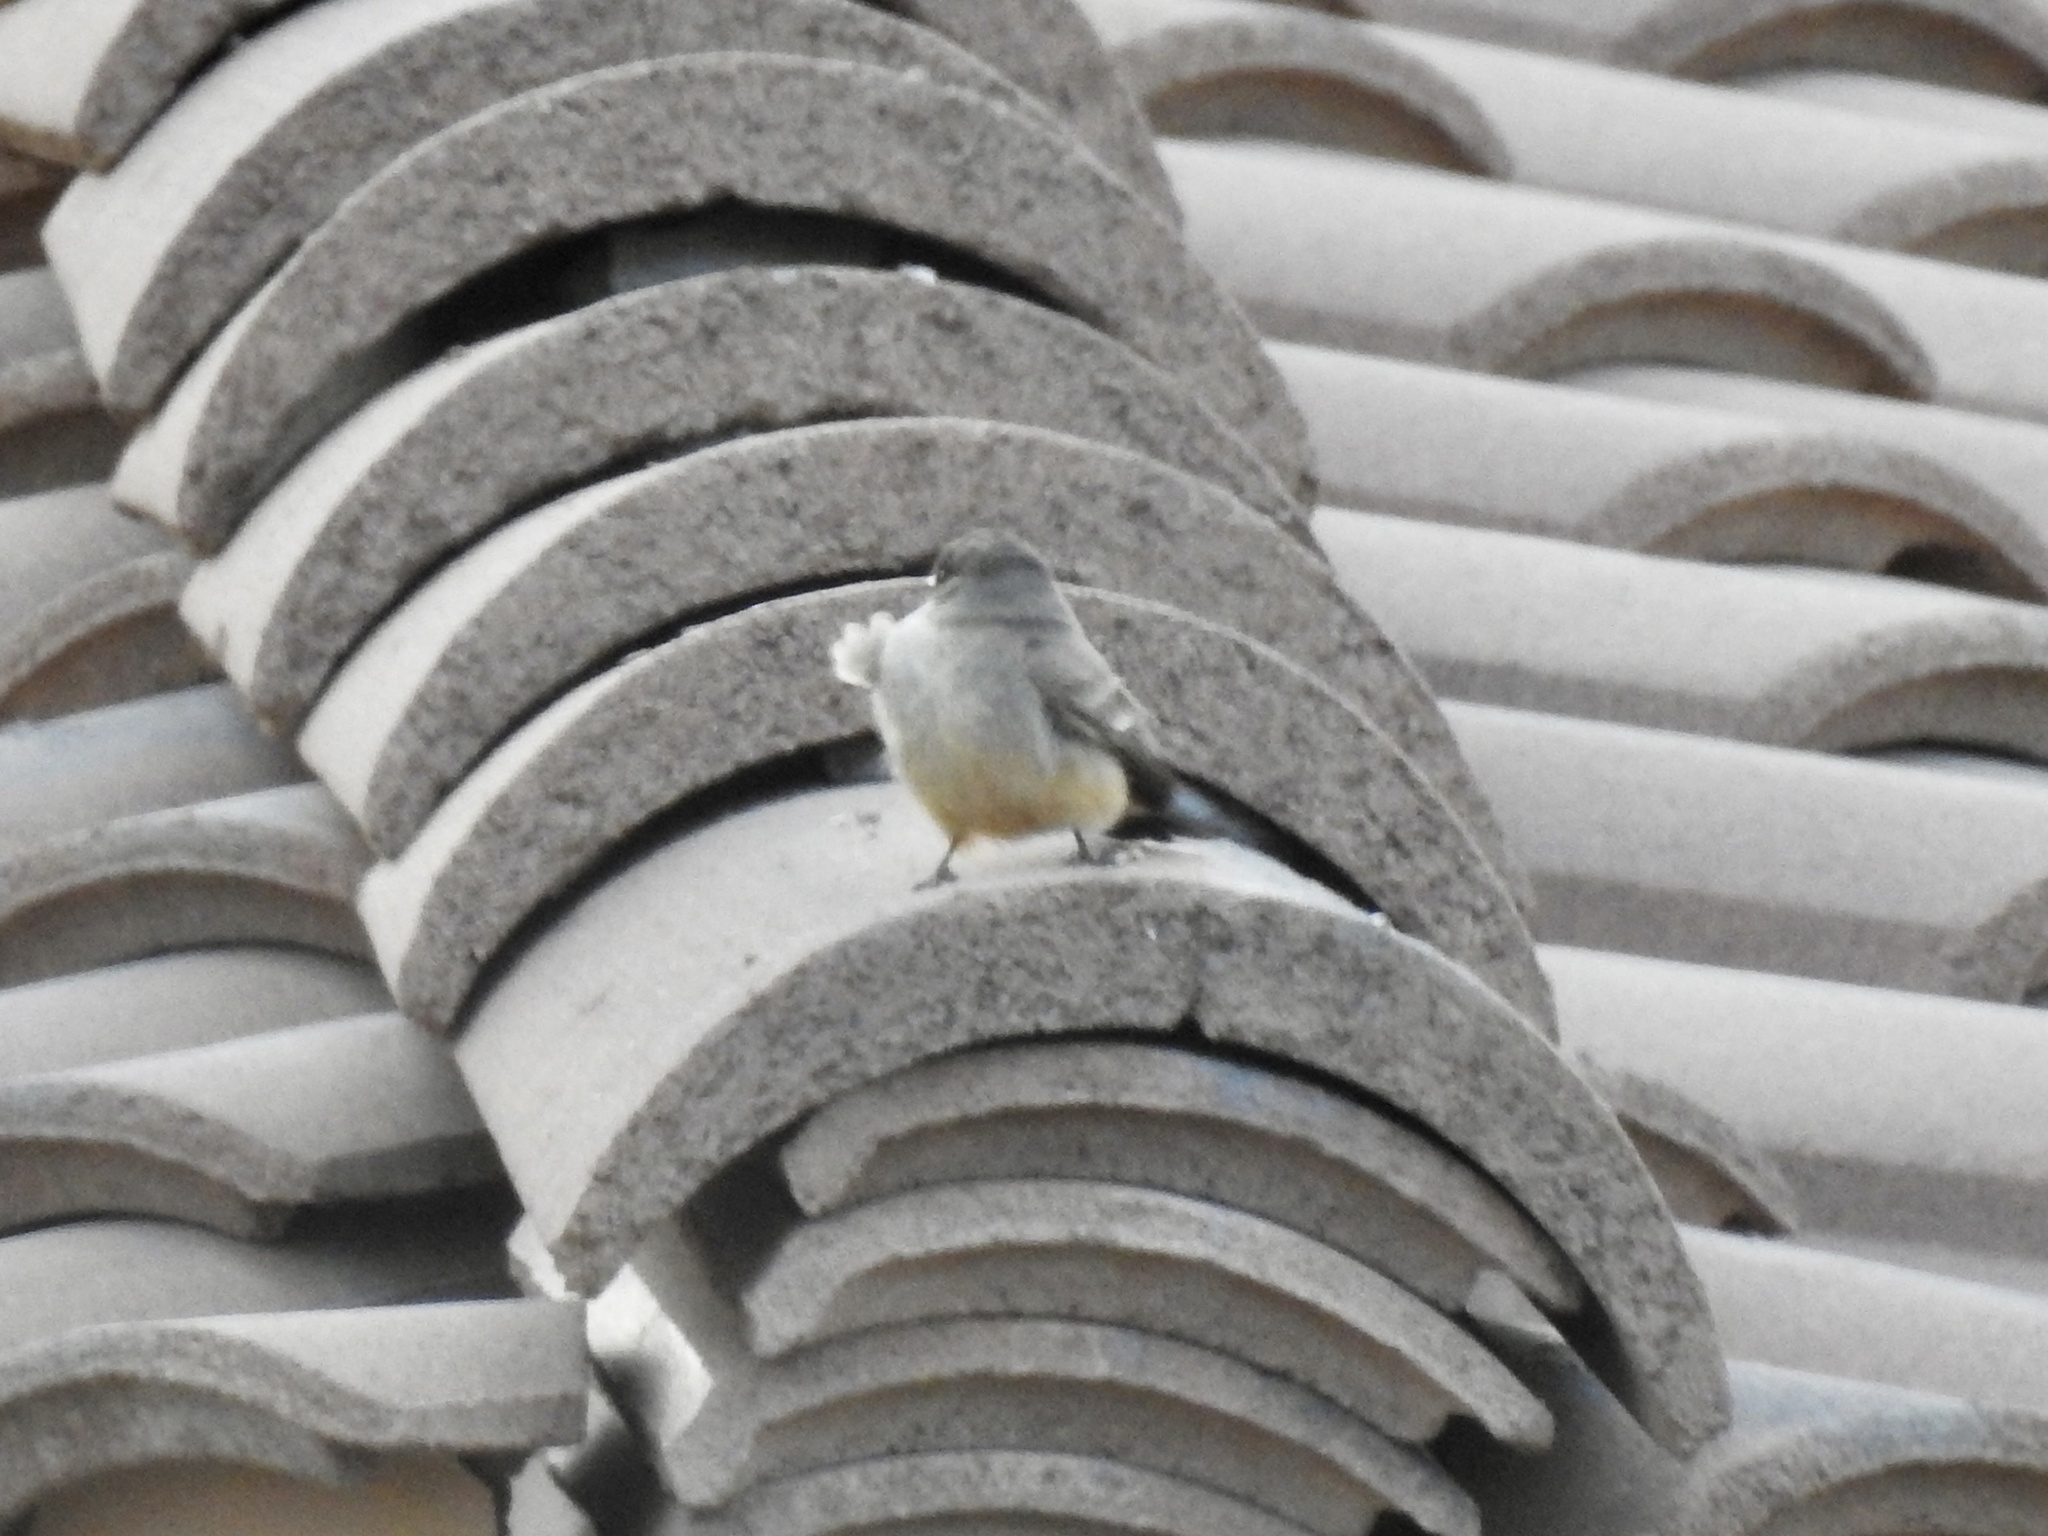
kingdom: Animalia
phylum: Chordata
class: Aves
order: Passeriformes
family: Tyrannidae
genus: Sayornis
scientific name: Sayornis saya
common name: Say's phoebe
